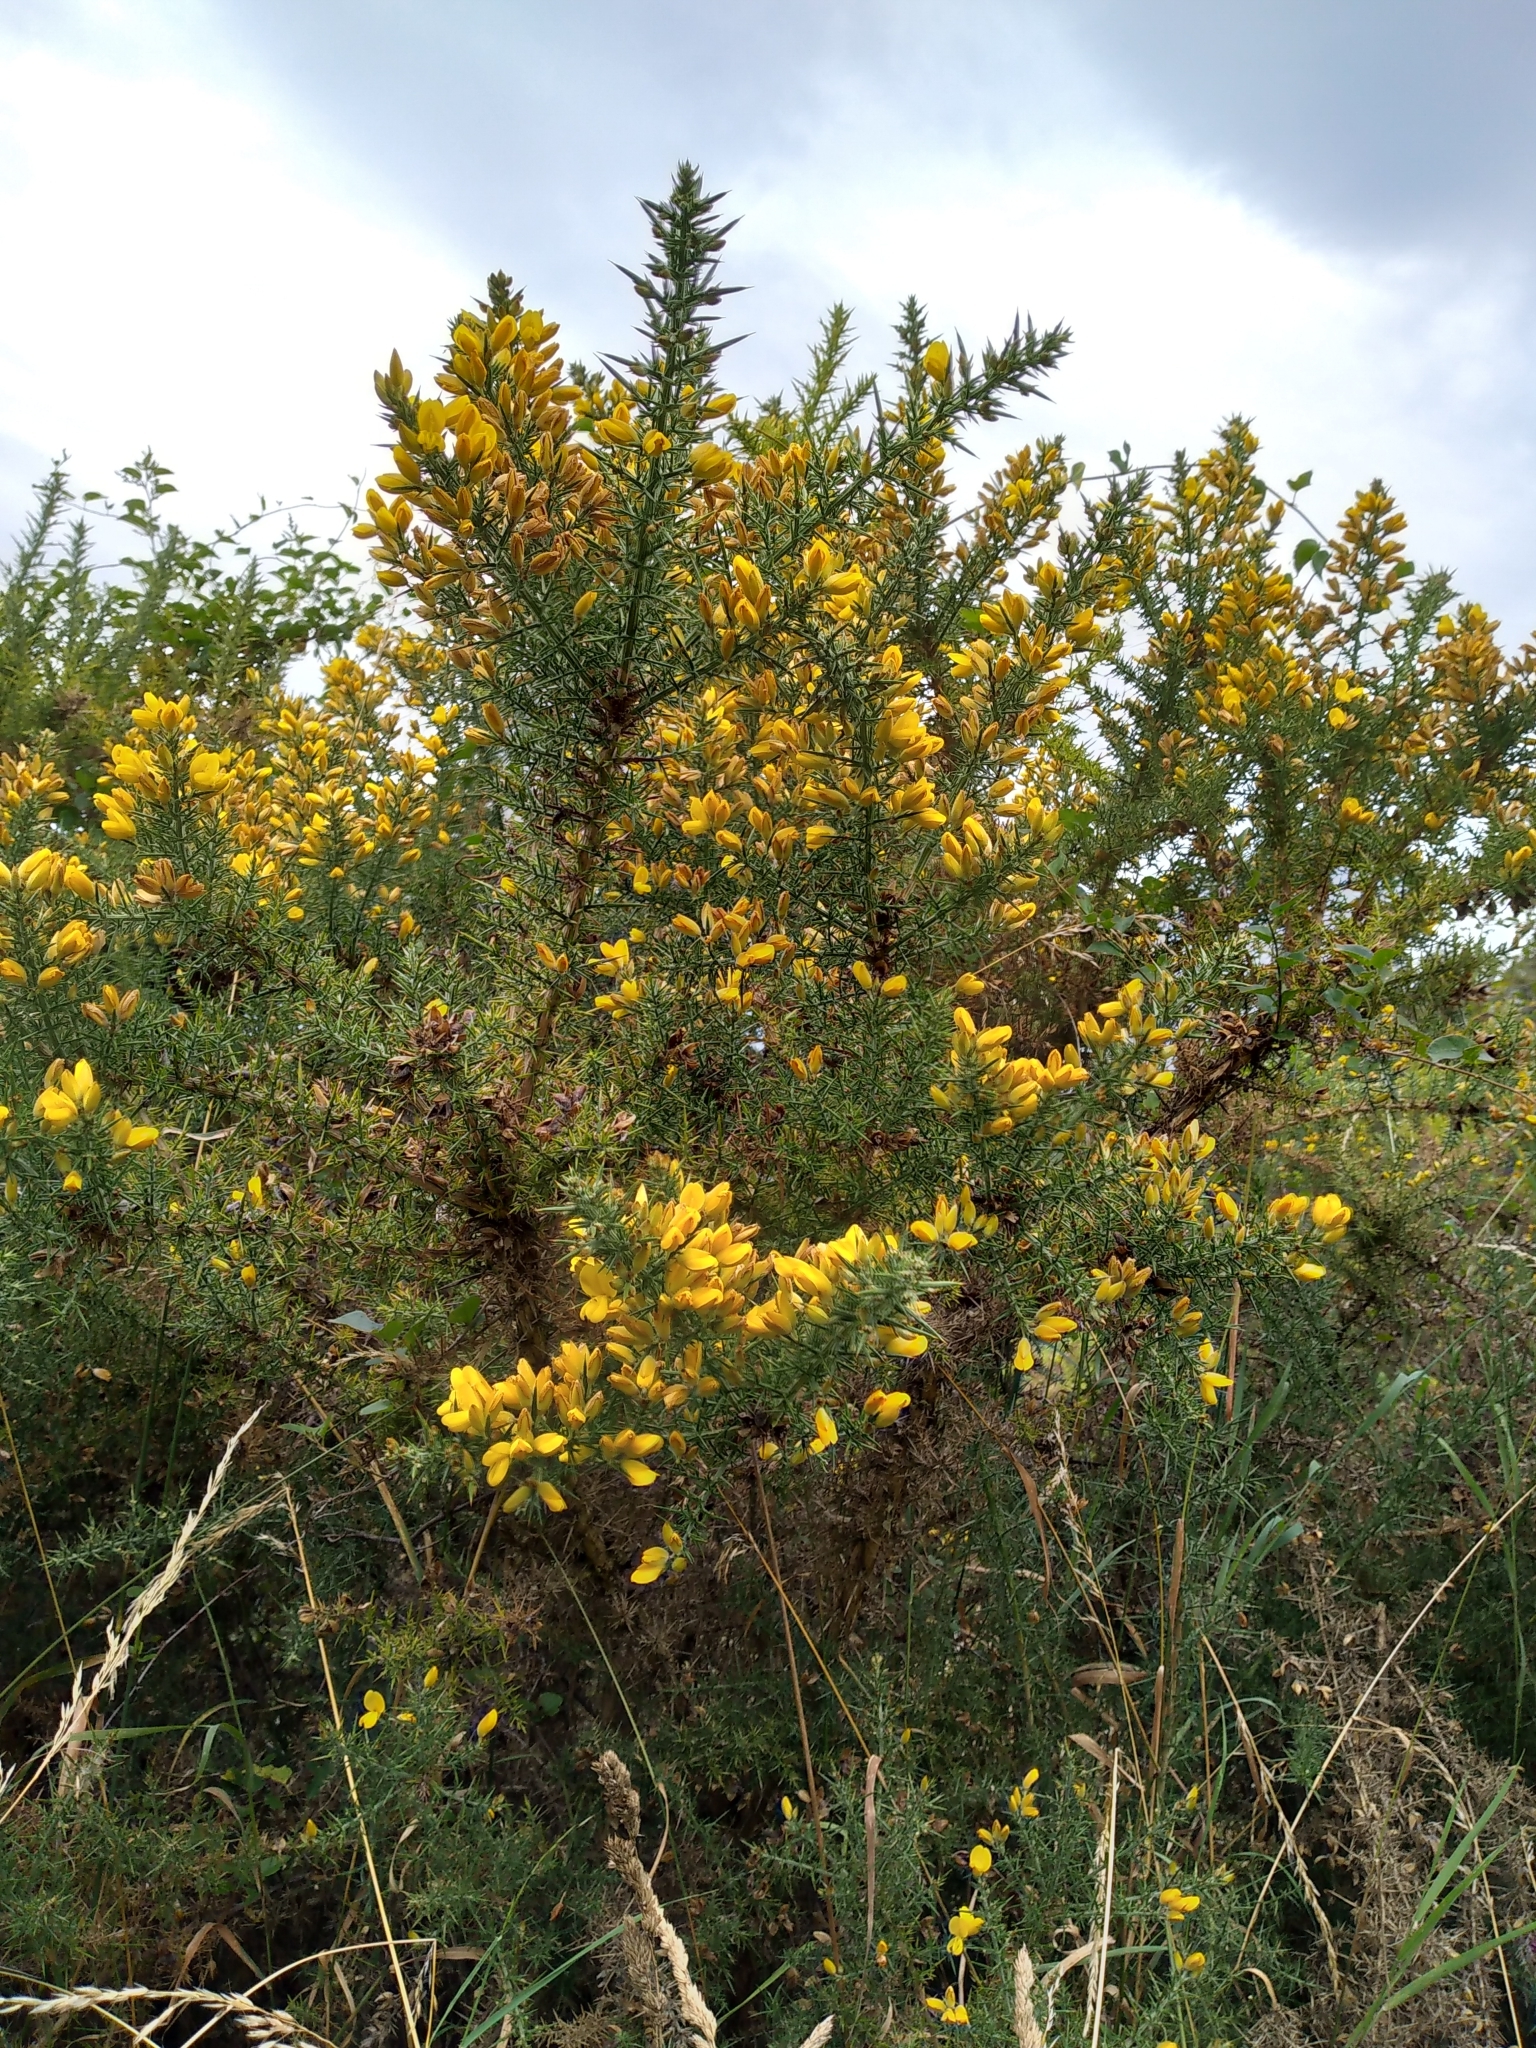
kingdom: Plantae
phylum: Tracheophyta
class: Magnoliopsida
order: Fabales
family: Fabaceae
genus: Ulex
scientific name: Ulex europaeus
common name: Common gorse
